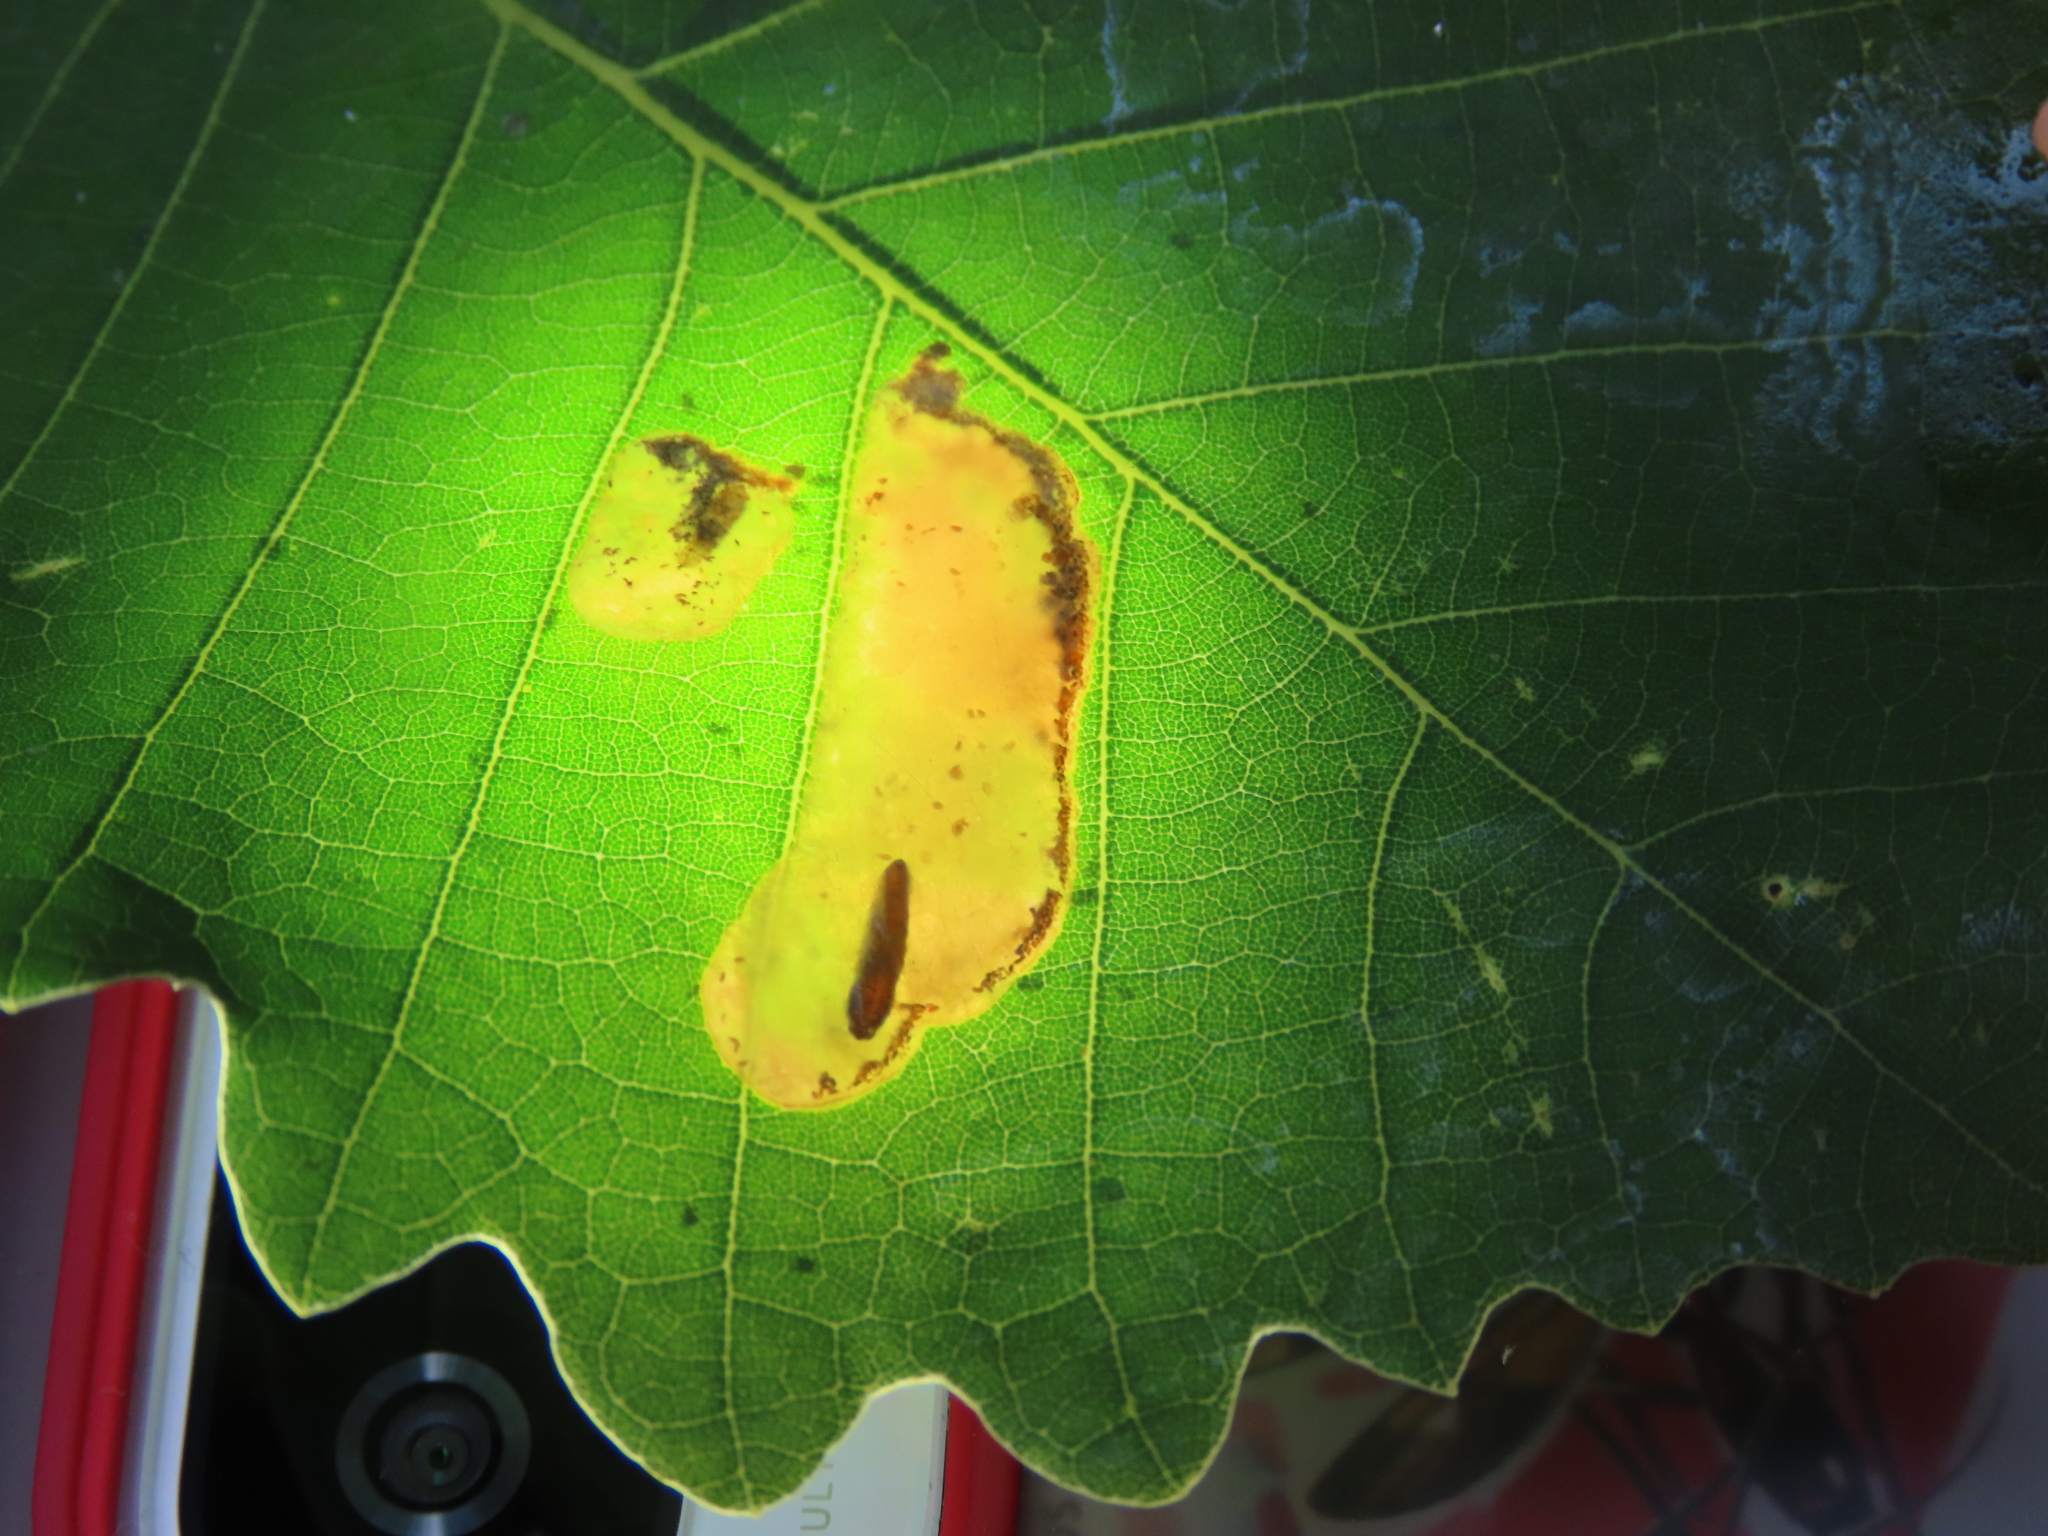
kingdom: Animalia
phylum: Arthropoda
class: Insecta
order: Hymenoptera
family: Tenthredinidae
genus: Profenusa
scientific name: Profenusa pygmaea
